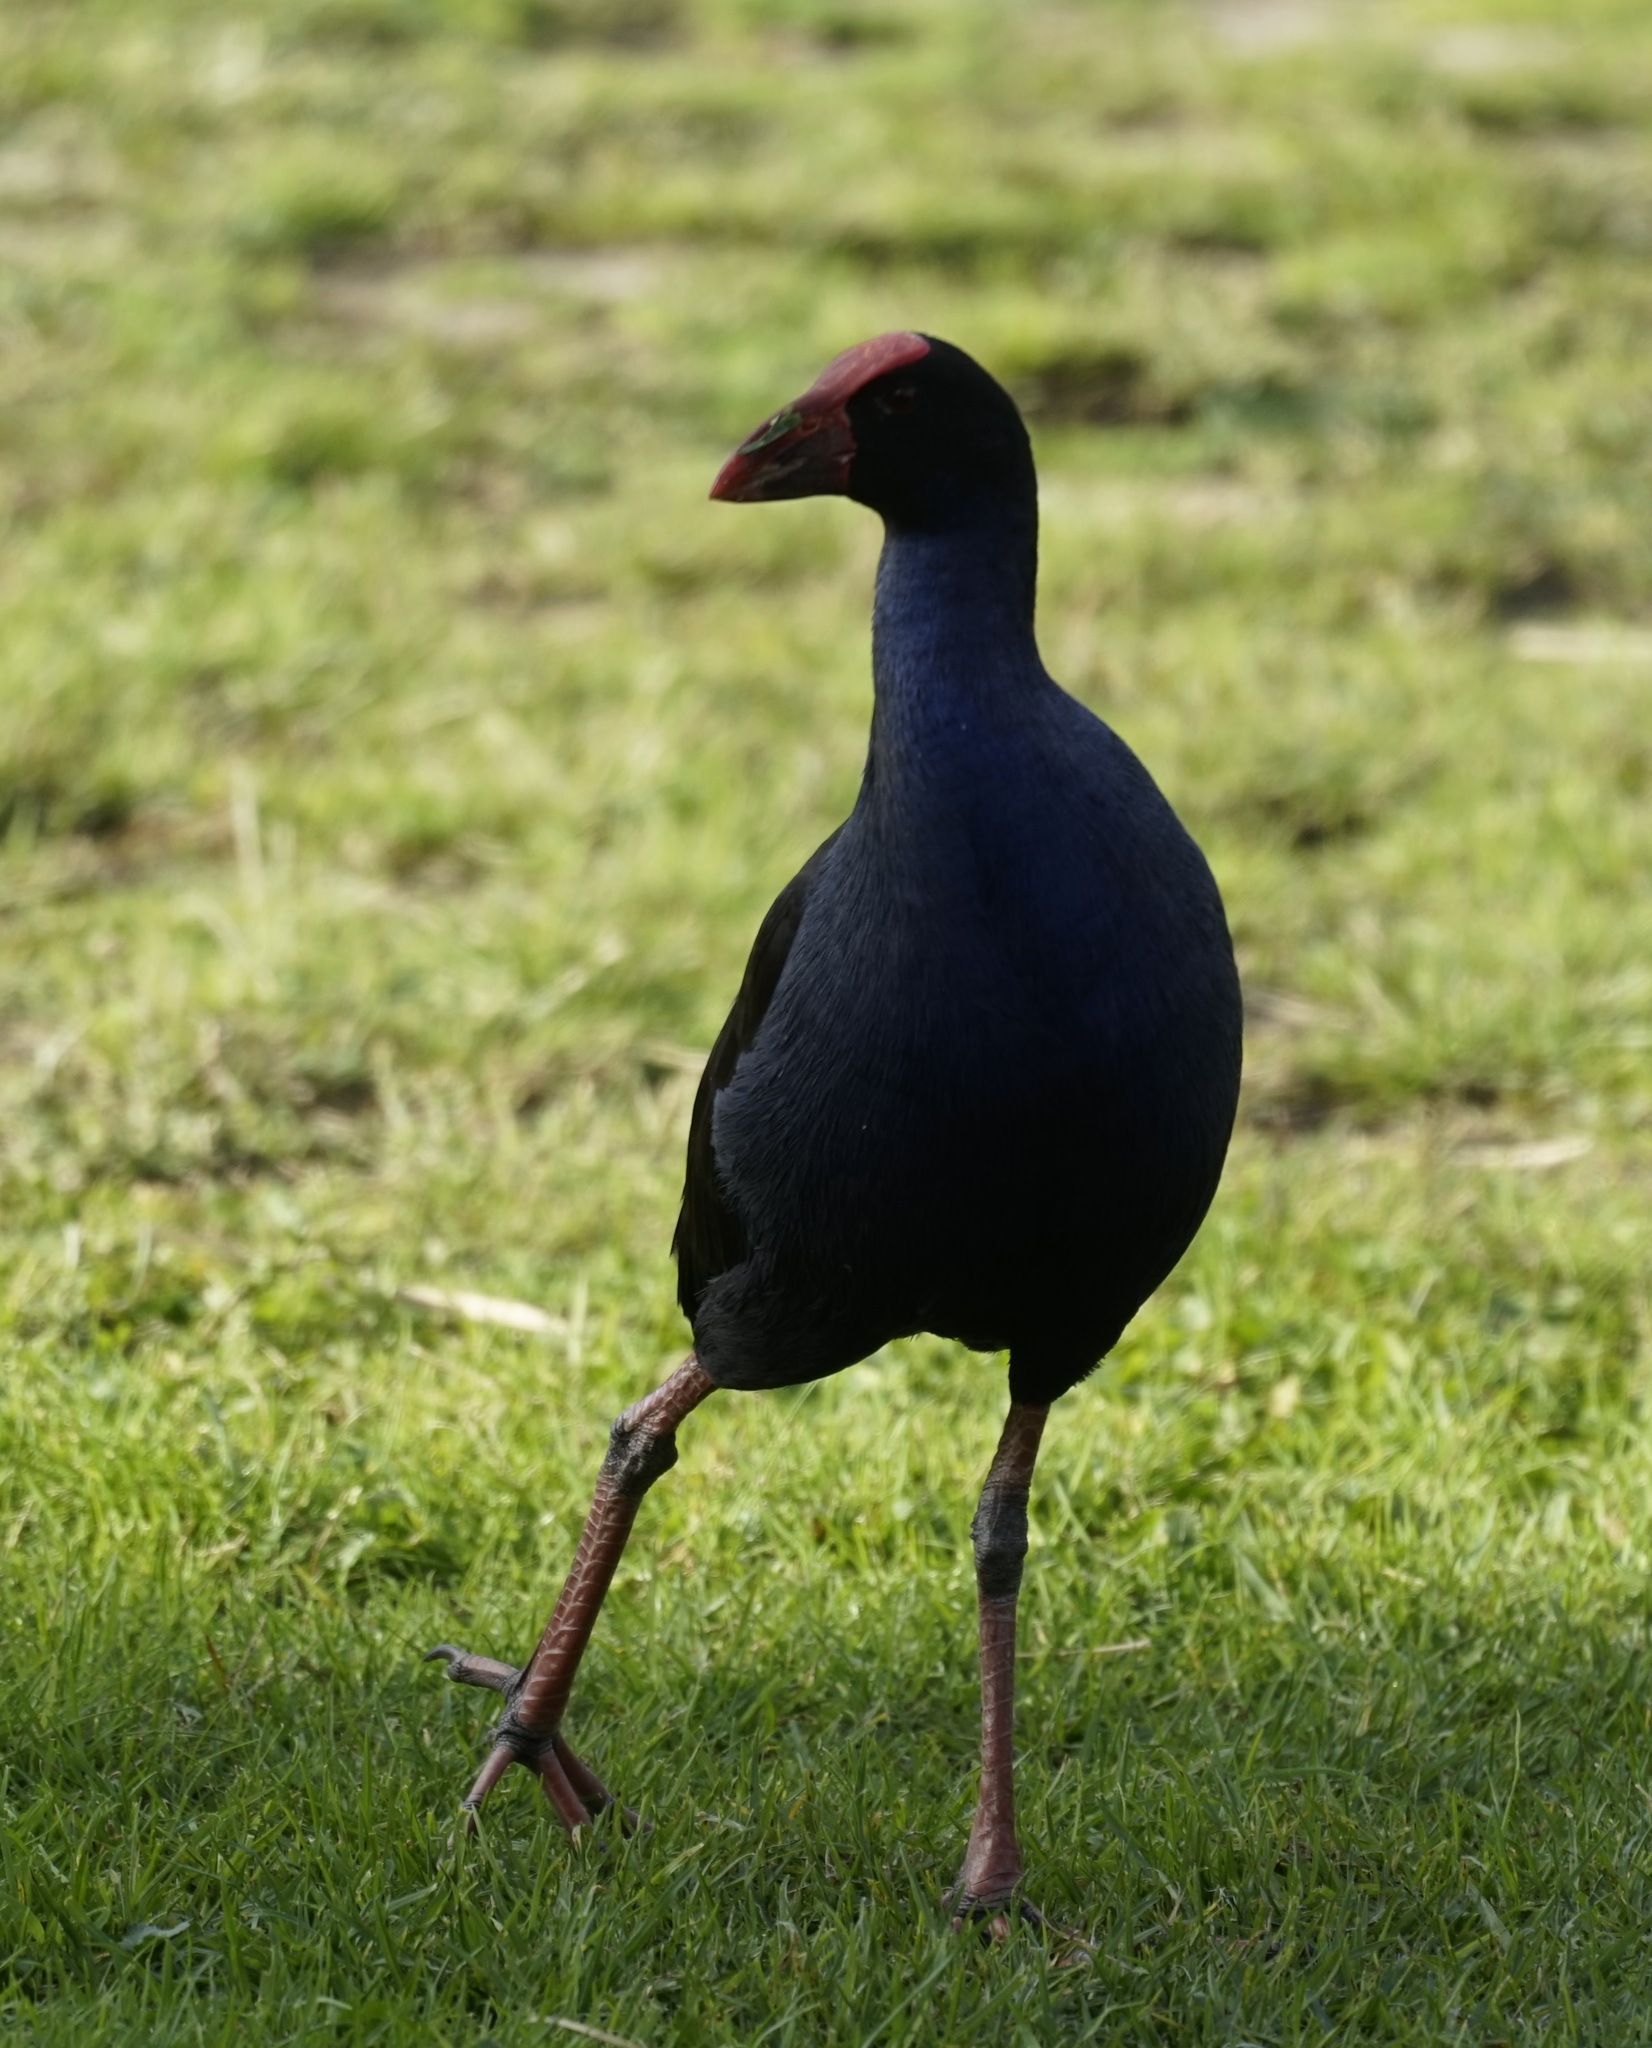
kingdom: Animalia
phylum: Chordata
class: Aves
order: Gruiformes
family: Rallidae
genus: Porphyrio
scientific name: Porphyrio melanotus
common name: Australasian swamphen
